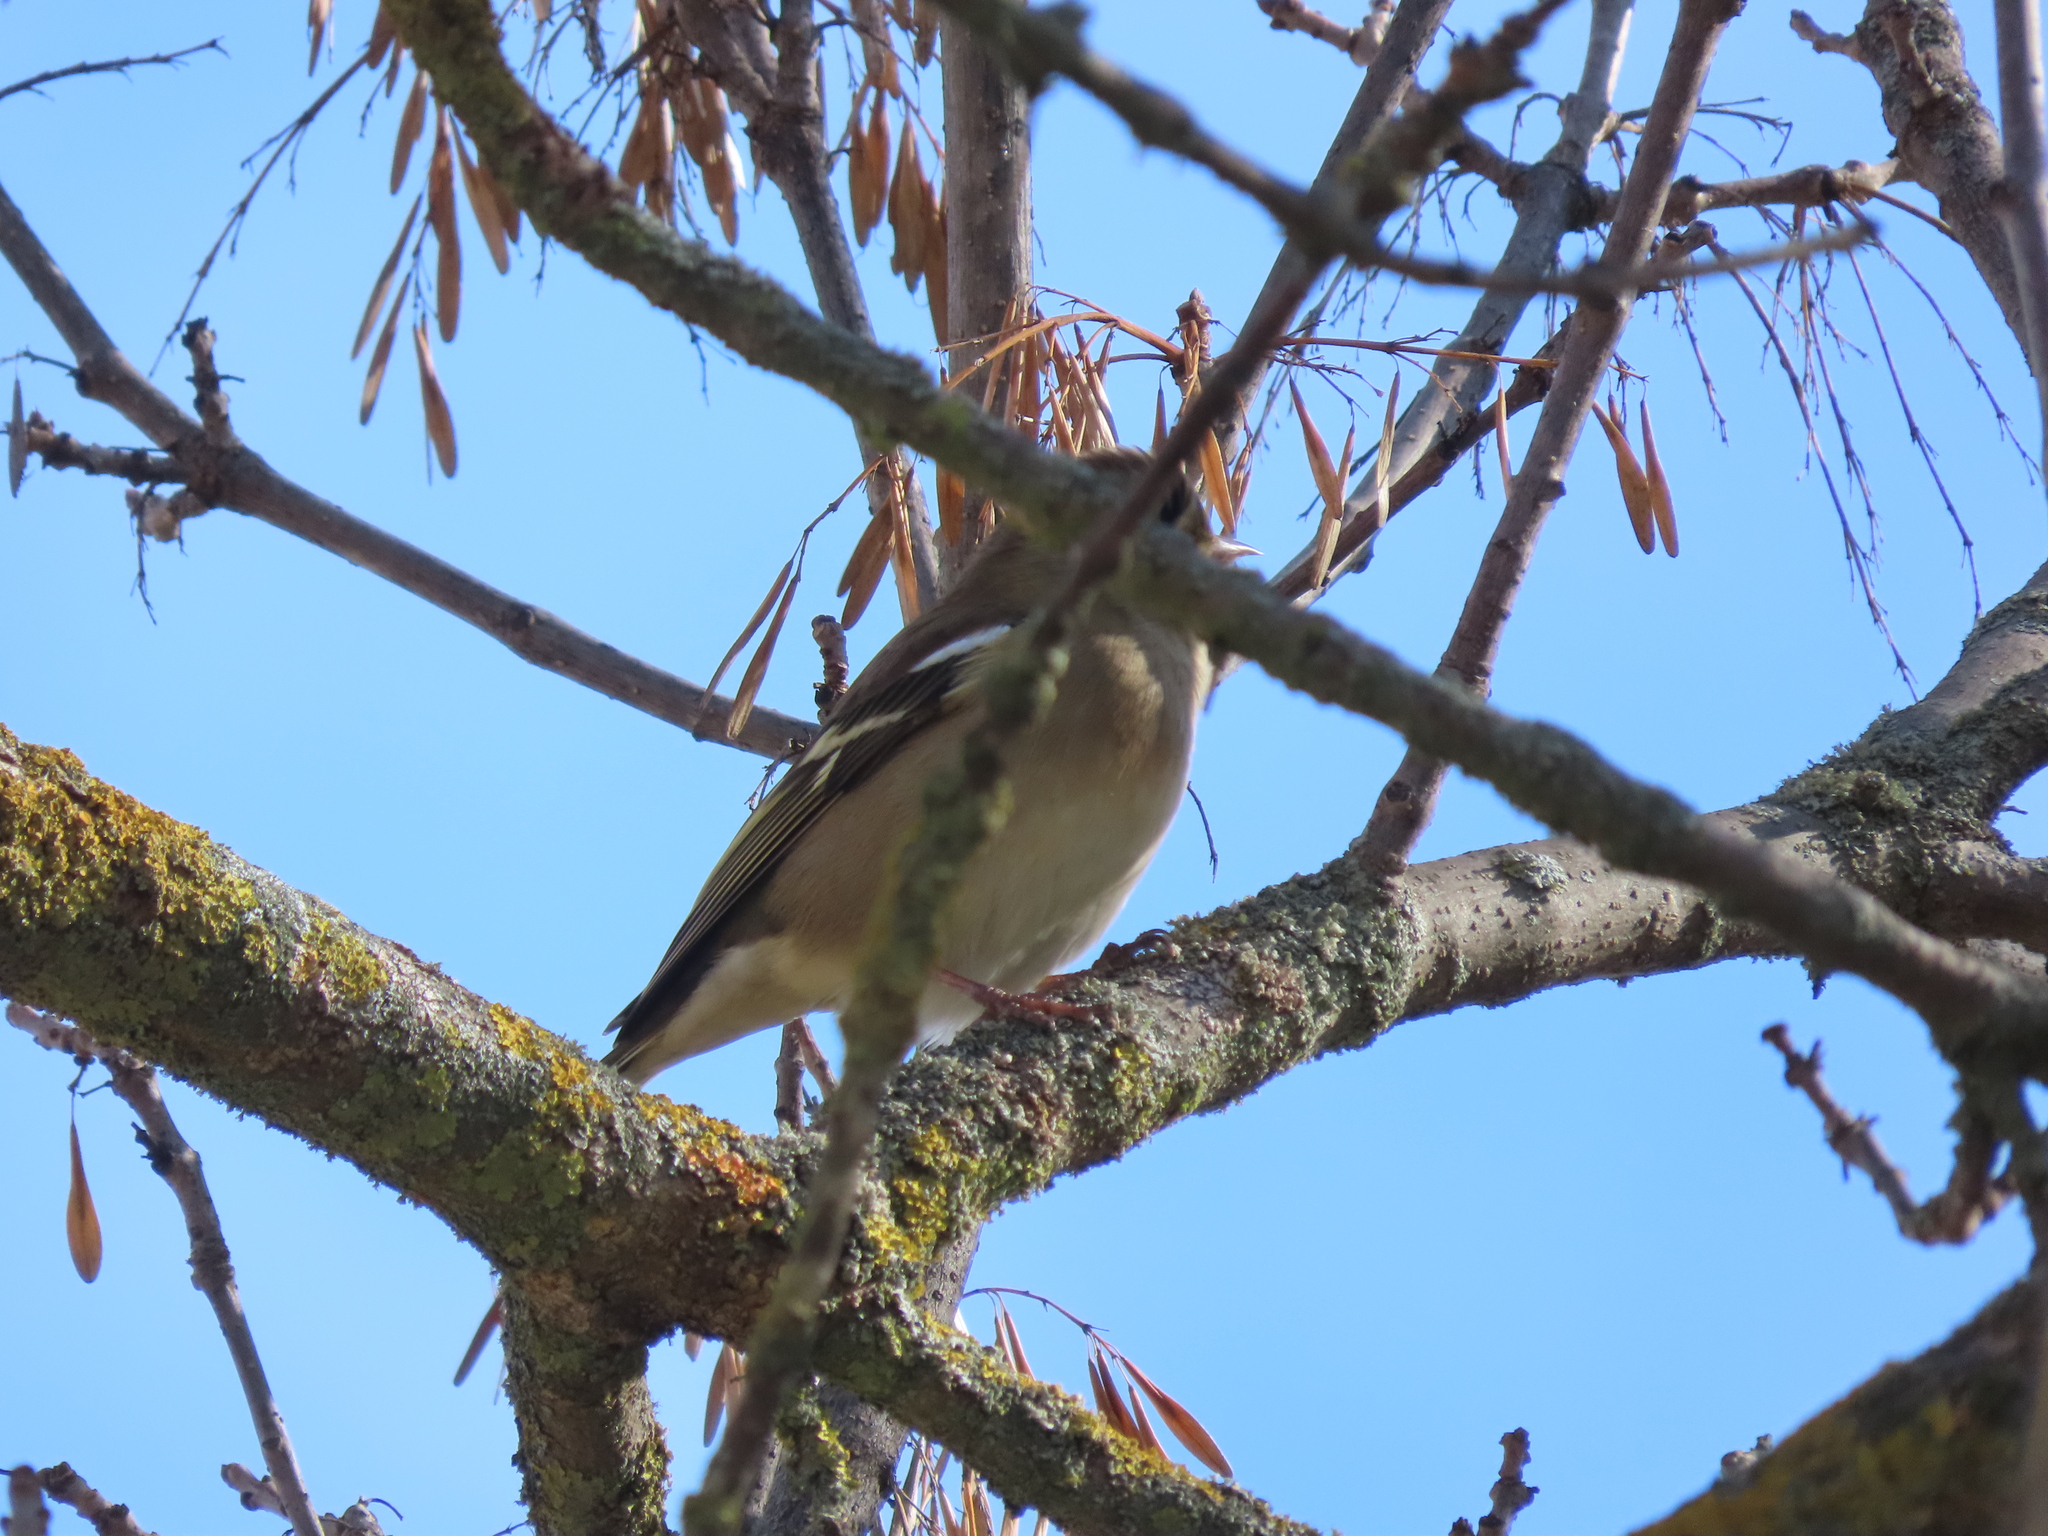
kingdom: Animalia
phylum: Chordata
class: Aves
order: Passeriformes
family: Fringillidae
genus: Fringilla
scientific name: Fringilla coelebs
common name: Common chaffinch
